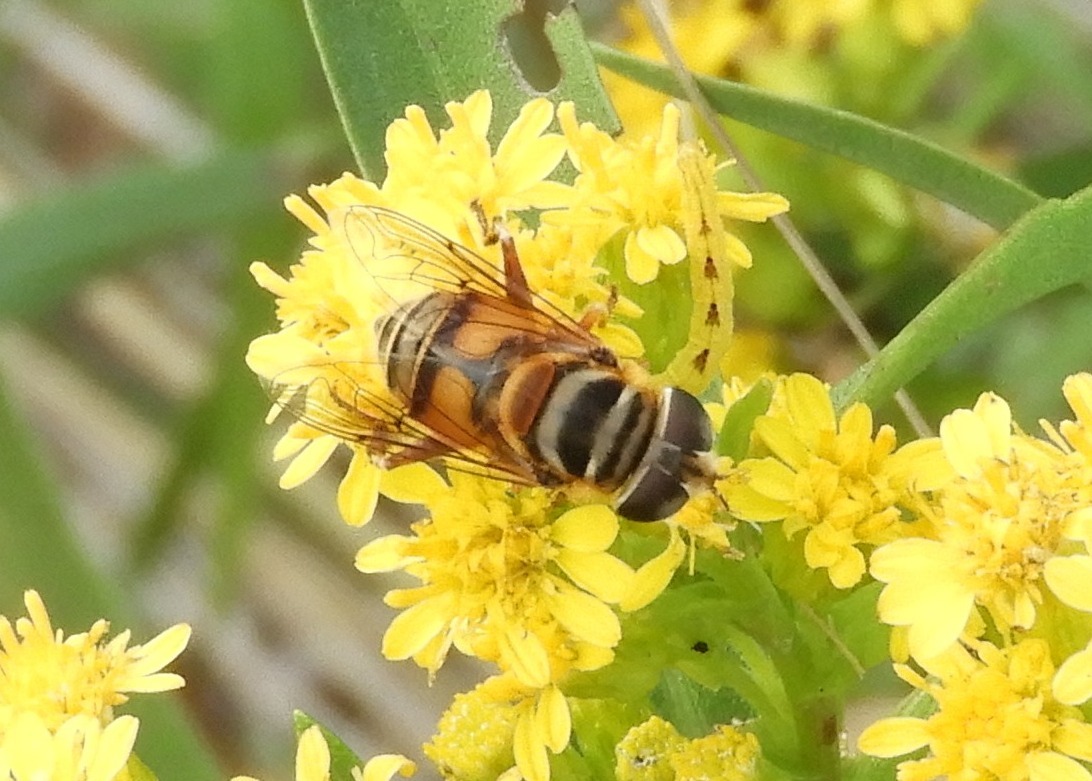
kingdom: Animalia
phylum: Arthropoda
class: Insecta
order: Diptera
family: Syrphidae
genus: Palpada
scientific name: Palpada vinetorum
